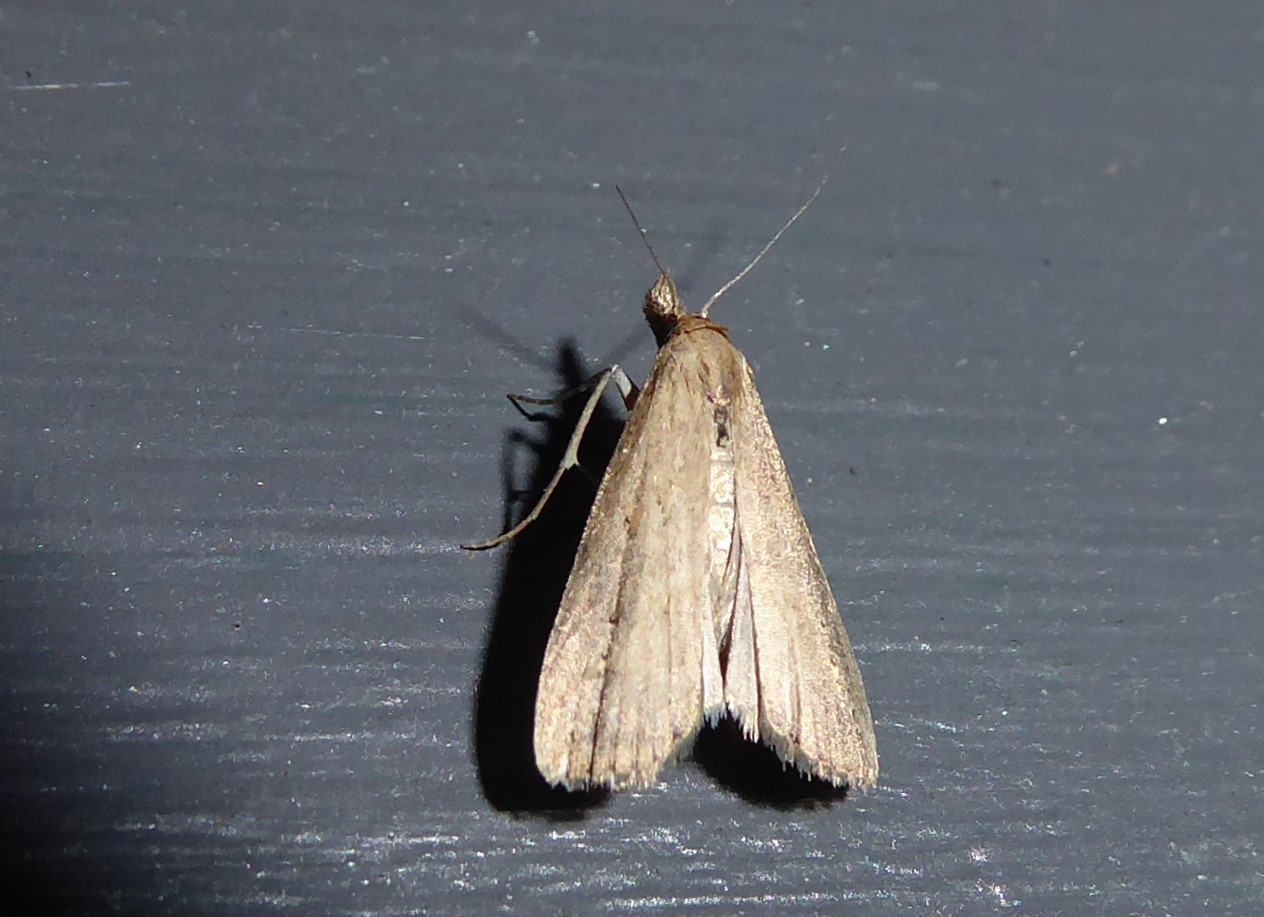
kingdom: Animalia
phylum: Arthropoda
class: Insecta
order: Lepidoptera
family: Erebidae
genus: Schrankia
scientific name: Schrankia costaestrigalis
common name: Pinion-streaked snout
